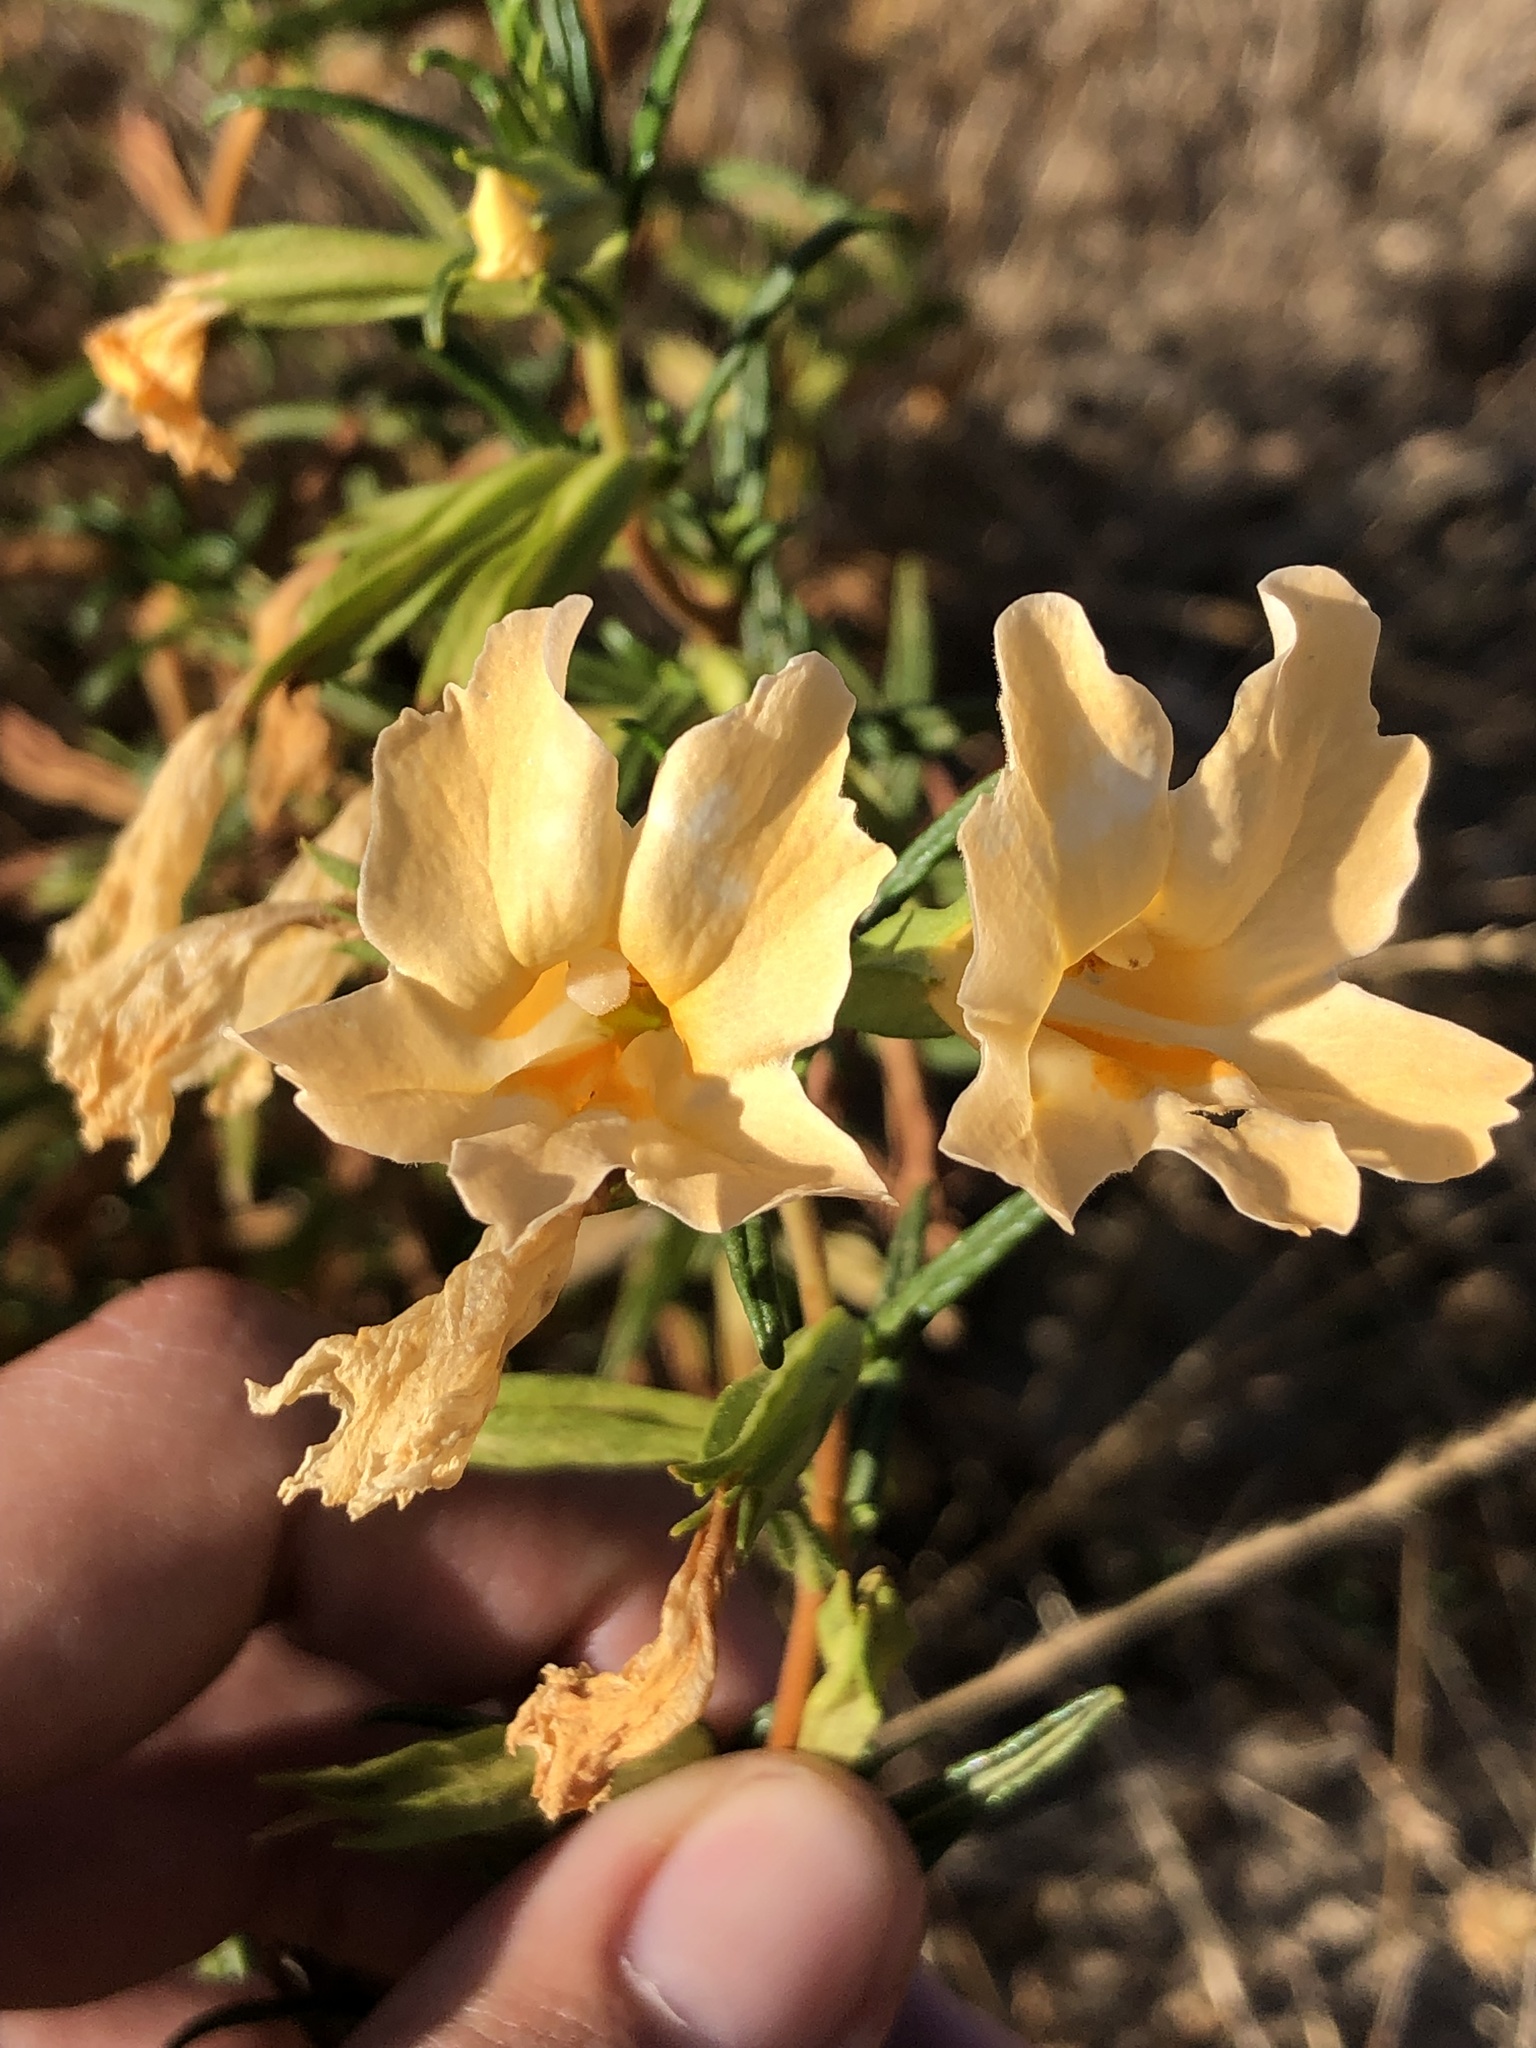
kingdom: Plantae
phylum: Tracheophyta
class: Magnoliopsida
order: Lamiales
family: Phrymaceae
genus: Diplacus
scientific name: Diplacus longiflorus
